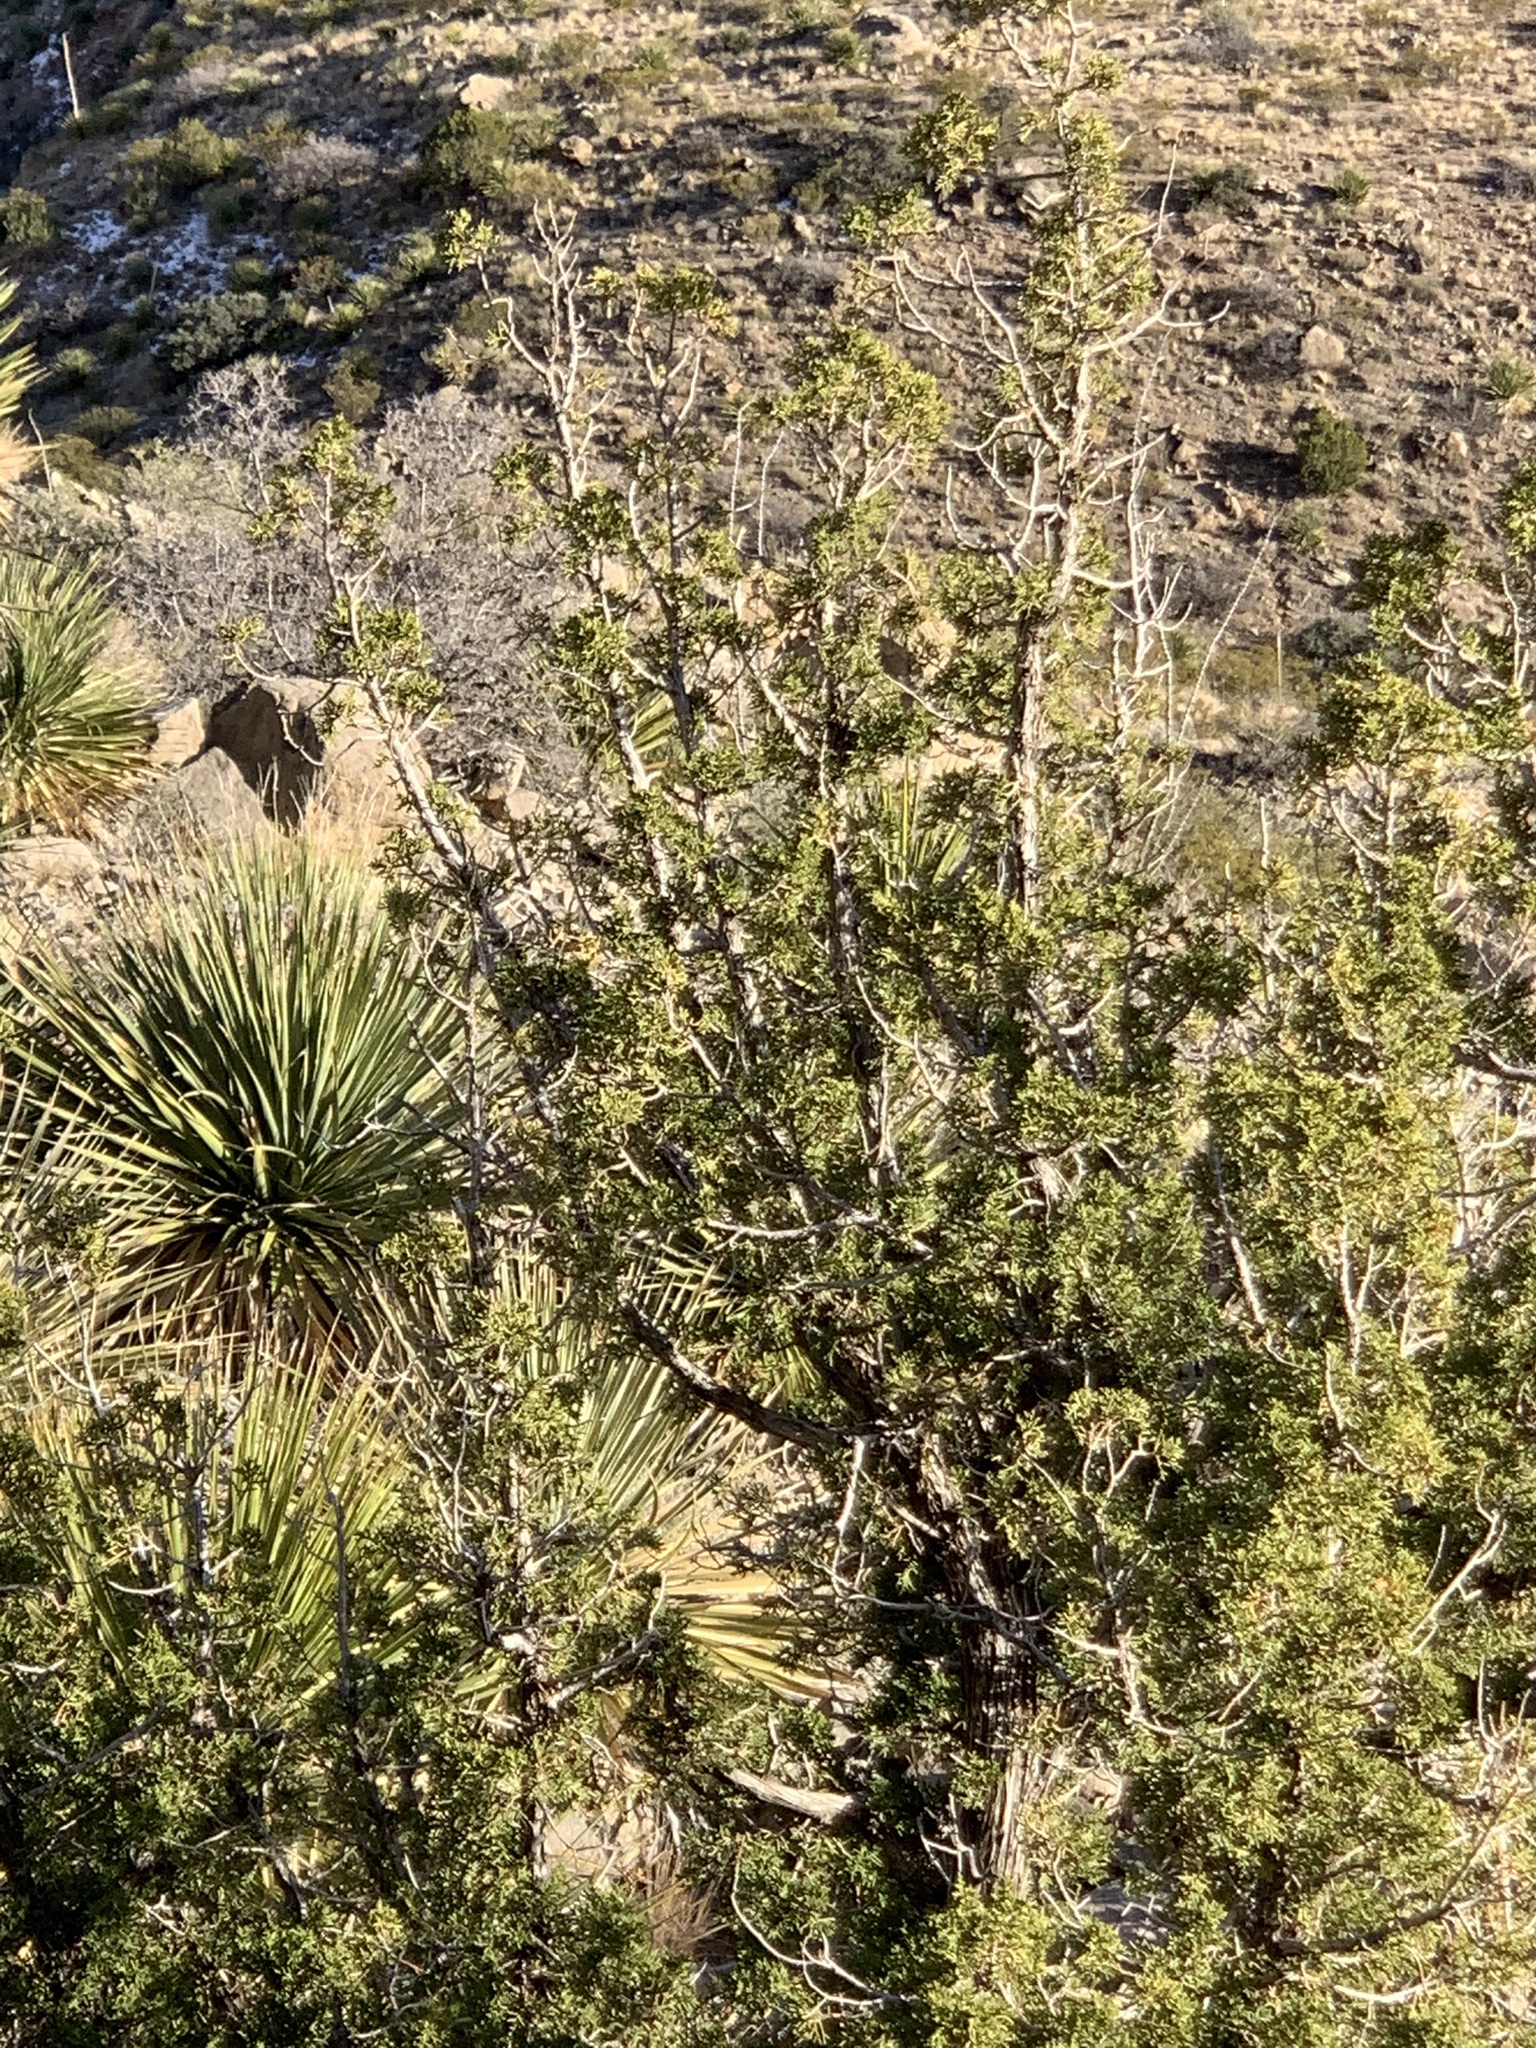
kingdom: Plantae
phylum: Tracheophyta
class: Pinopsida
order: Pinales
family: Cupressaceae
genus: Juniperus
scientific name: Juniperus monosperma
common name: One-seed juniper
